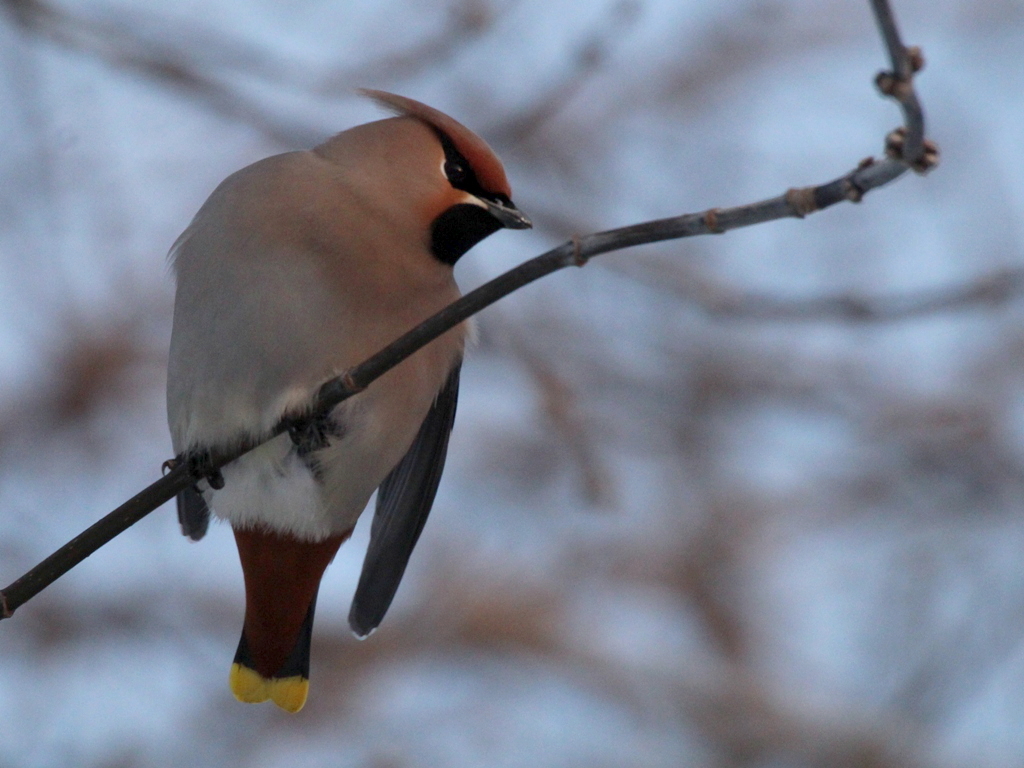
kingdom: Animalia
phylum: Chordata
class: Aves
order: Passeriformes
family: Bombycillidae
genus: Bombycilla
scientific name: Bombycilla garrulus
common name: Bohemian waxwing
